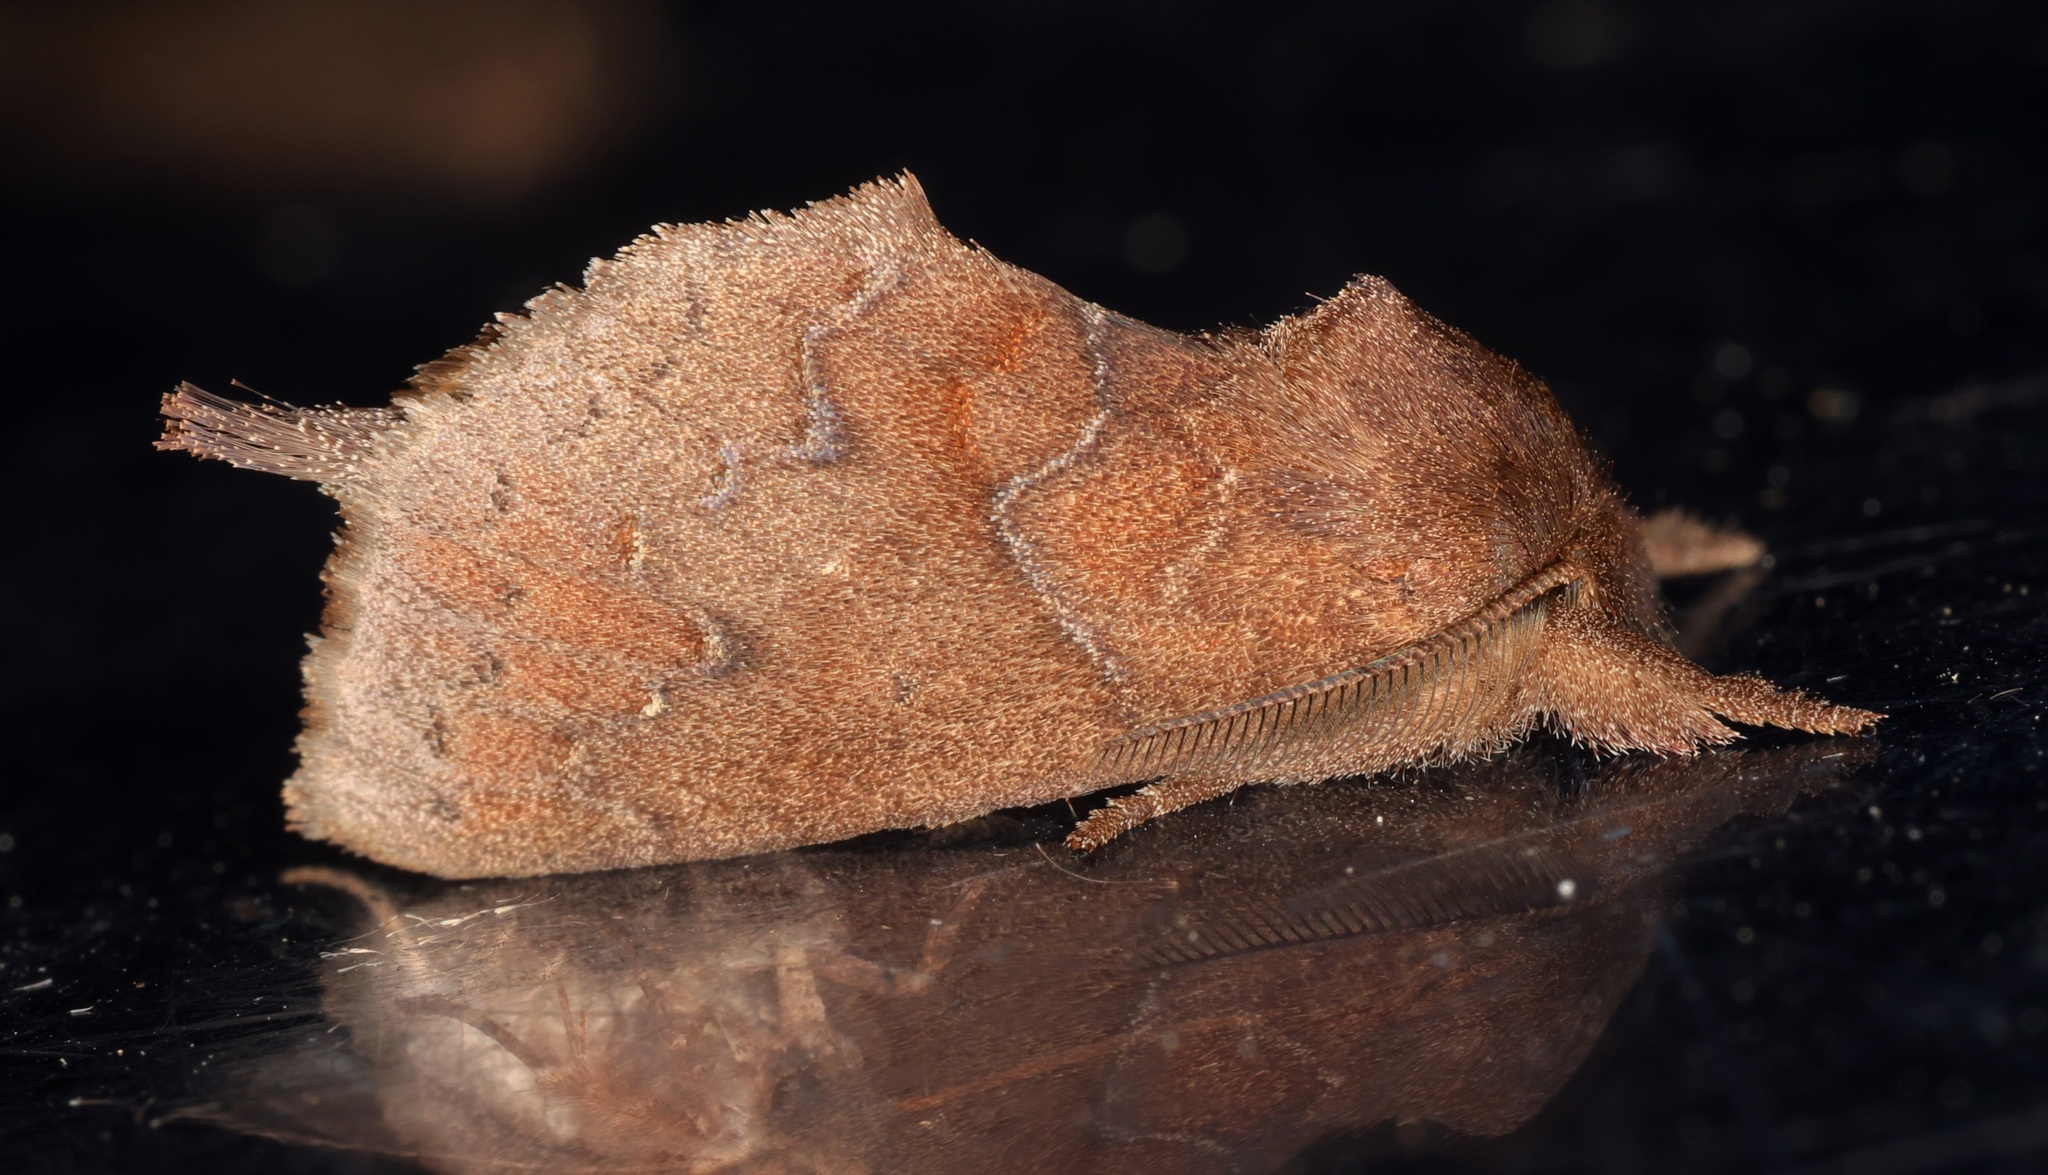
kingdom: Animalia
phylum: Arthropoda
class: Insecta
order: Lepidoptera
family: Notodontidae
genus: Micromelalopha
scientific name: Micromelalopha simonovi
